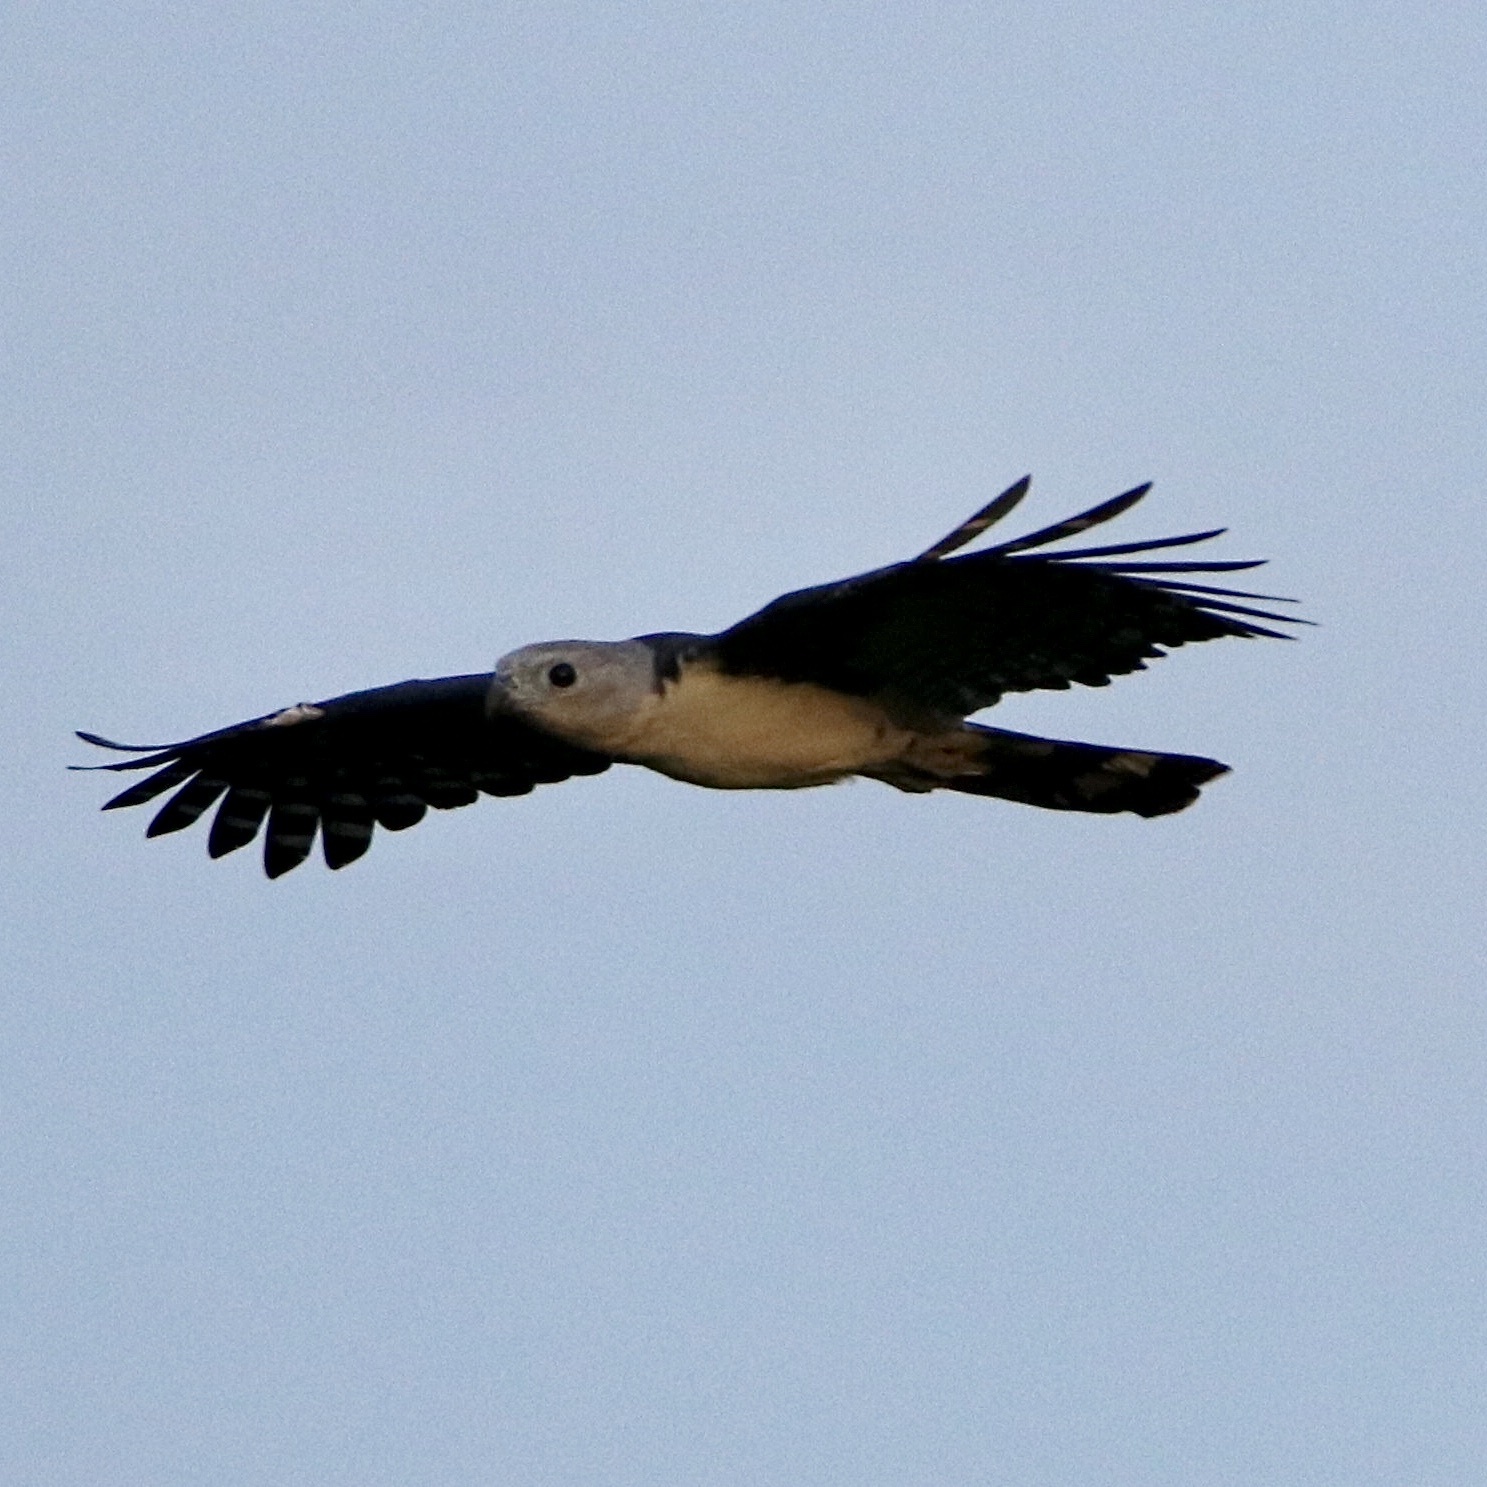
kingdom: Animalia
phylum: Chordata
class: Aves
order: Accipitriformes
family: Accipitridae
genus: Leptodon
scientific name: Leptodon cayanensis
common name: Gray-headed kite
